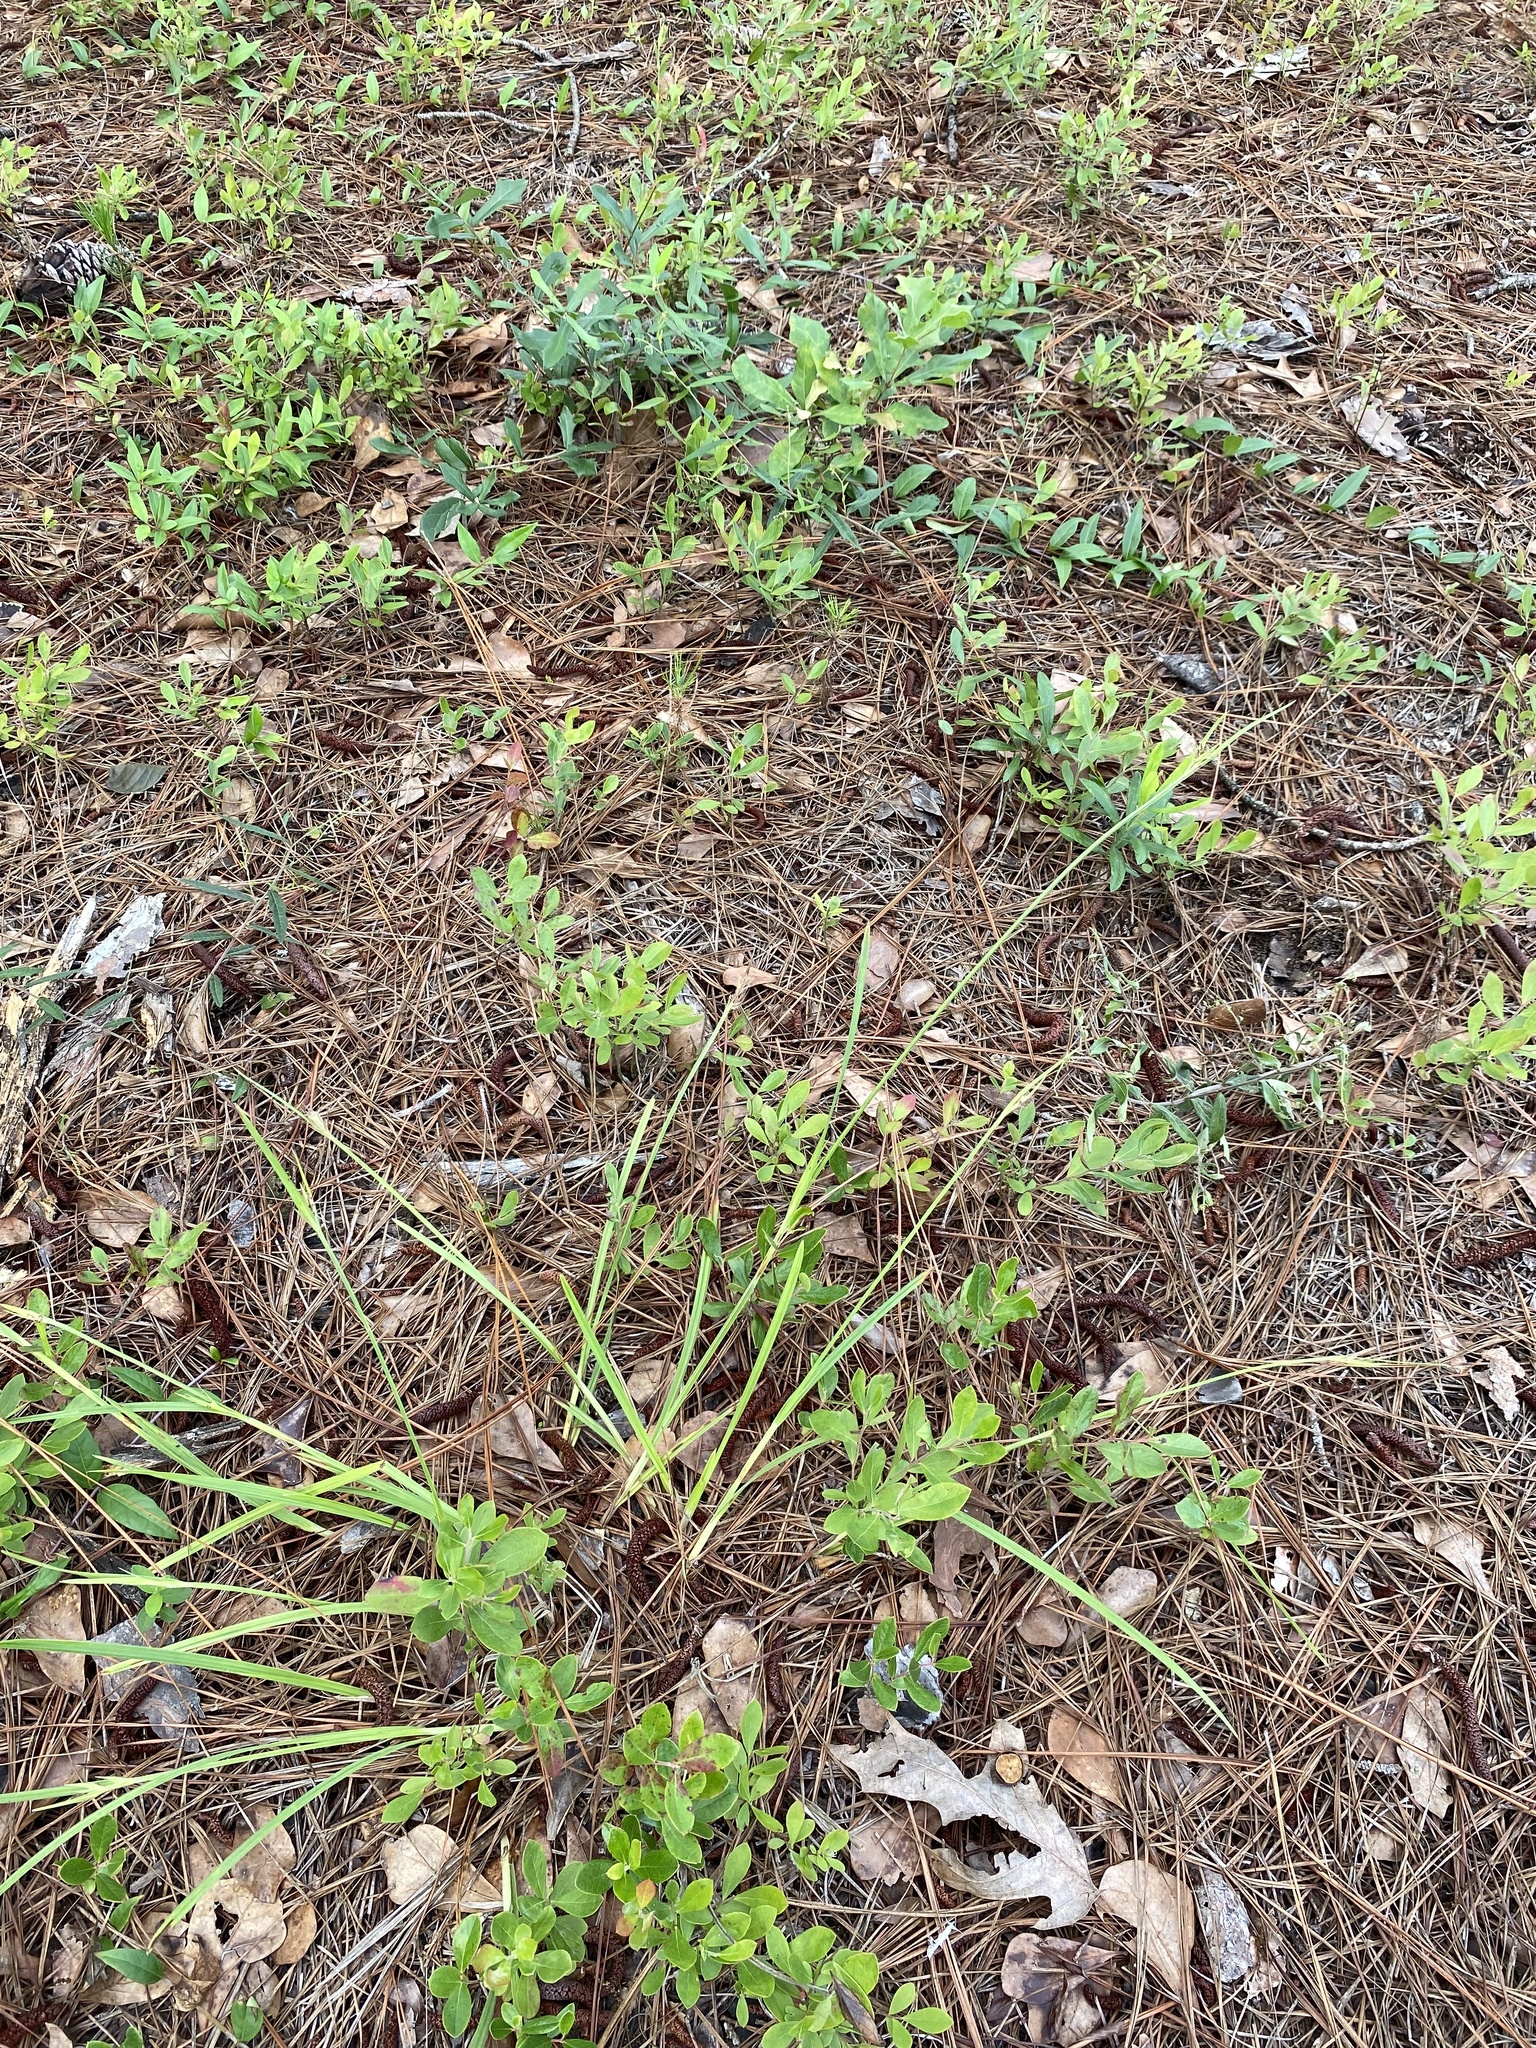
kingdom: Plantae
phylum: Tracheophyta
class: Liliopsida
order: Poales
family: Cyperaceae
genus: Scleria
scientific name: Scleria ciliata
